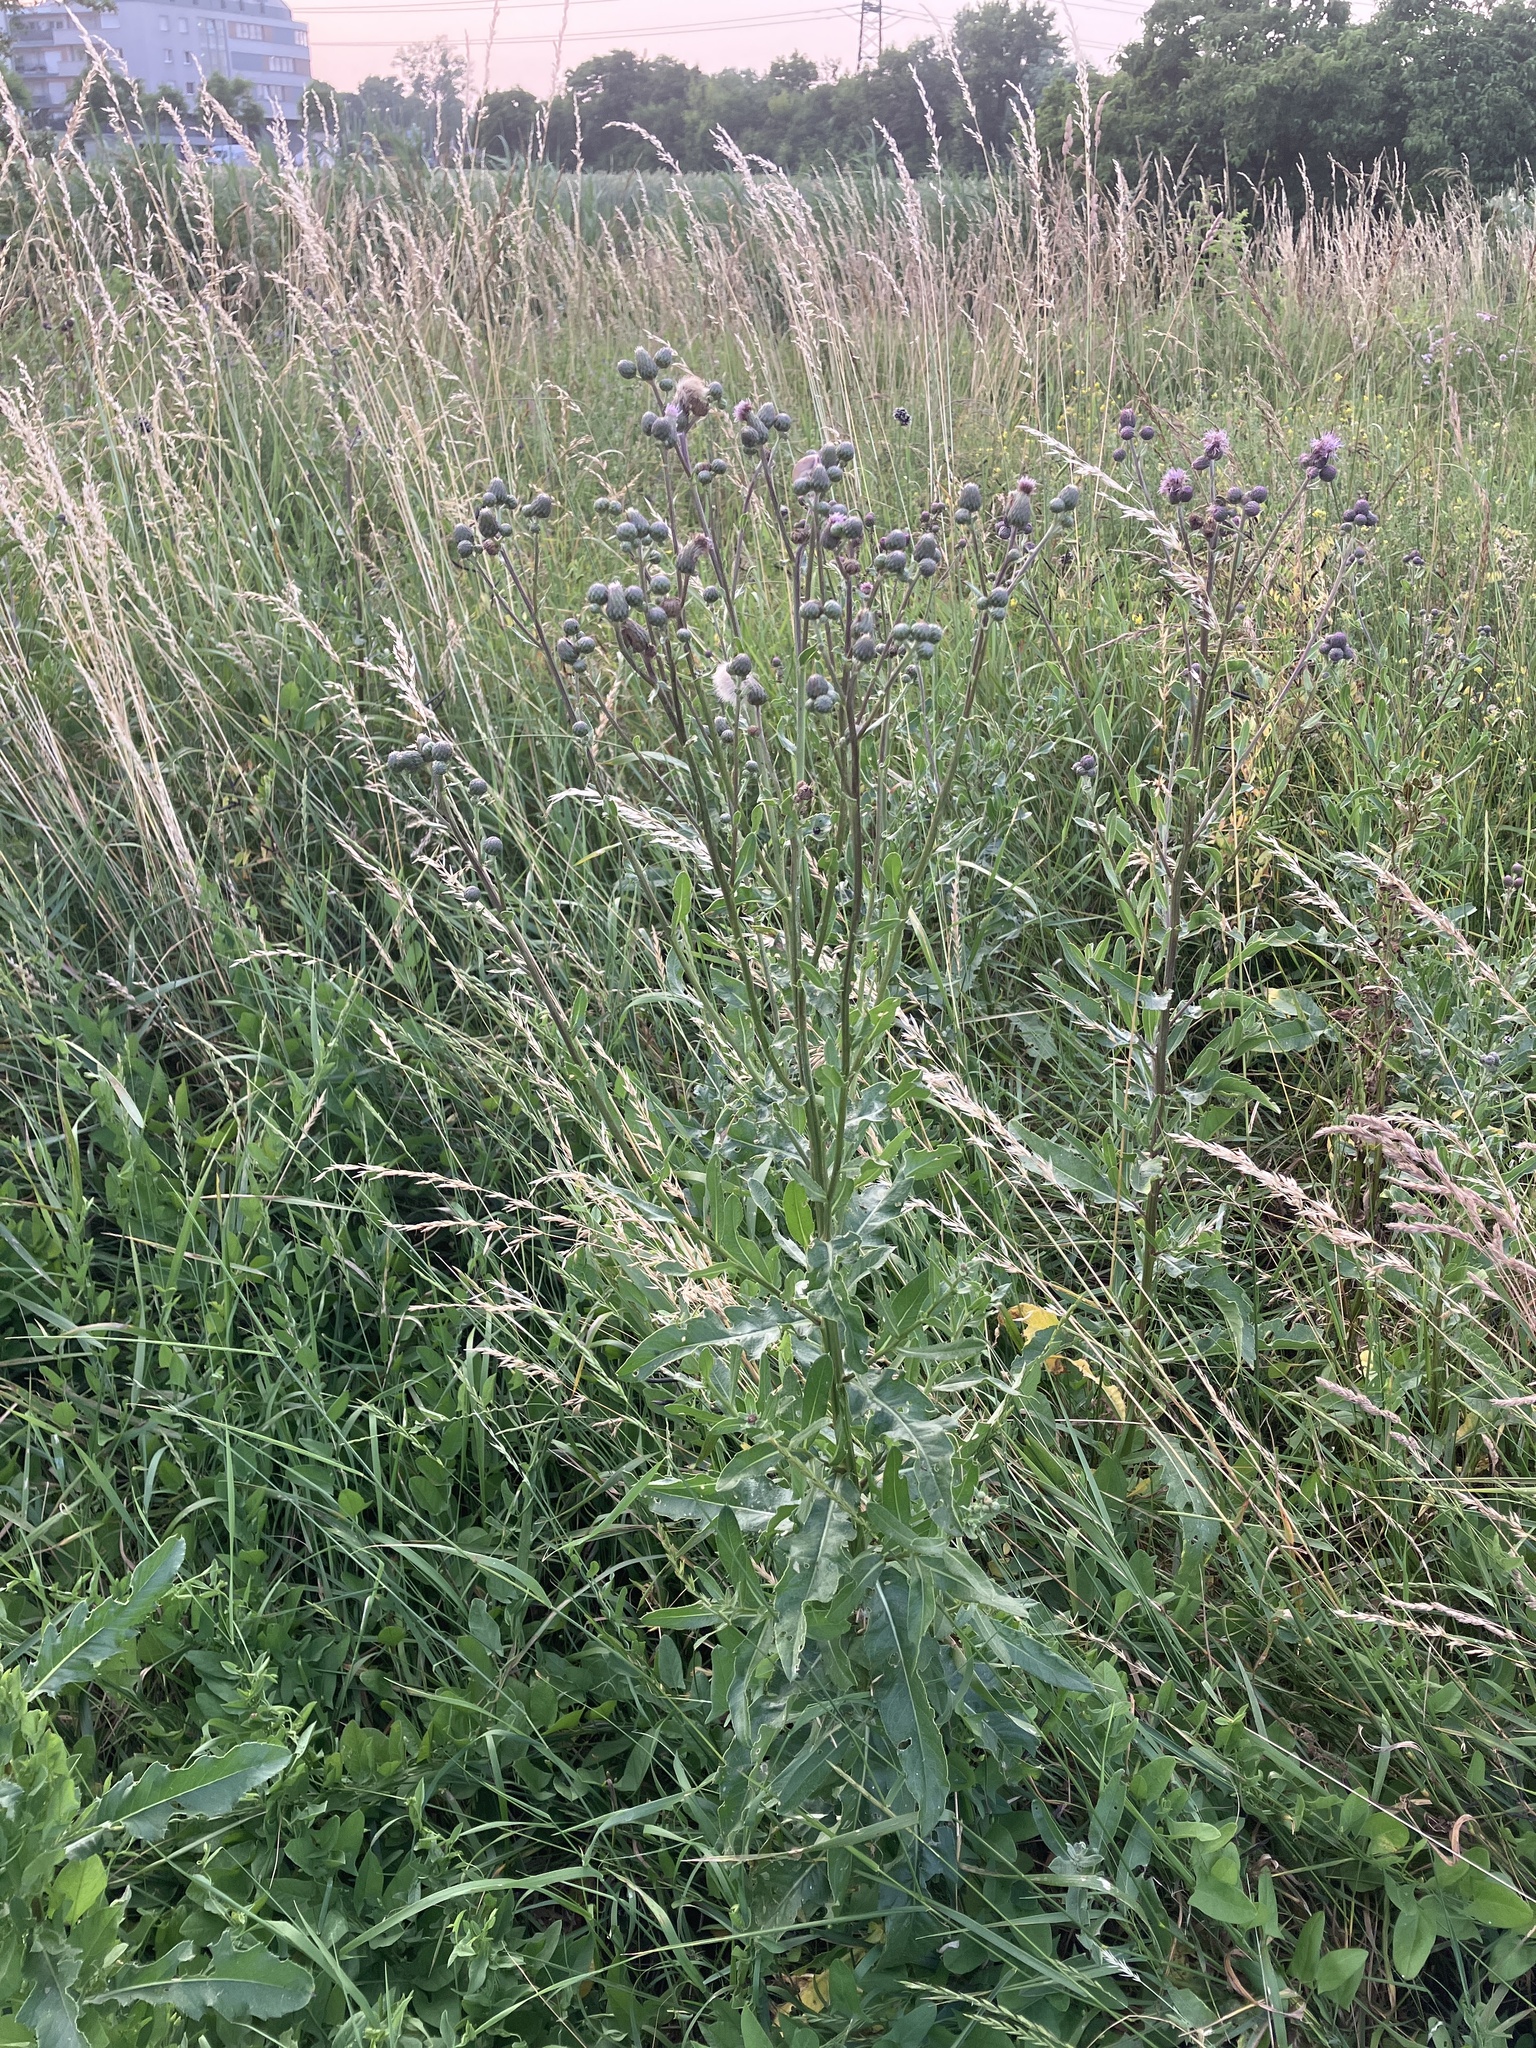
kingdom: Plantae
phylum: Tracheophyta
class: Magnoliopsida
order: Asterales
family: Asteraceae
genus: Cirsium
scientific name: Cirsium arvense
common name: Creeping thistle
